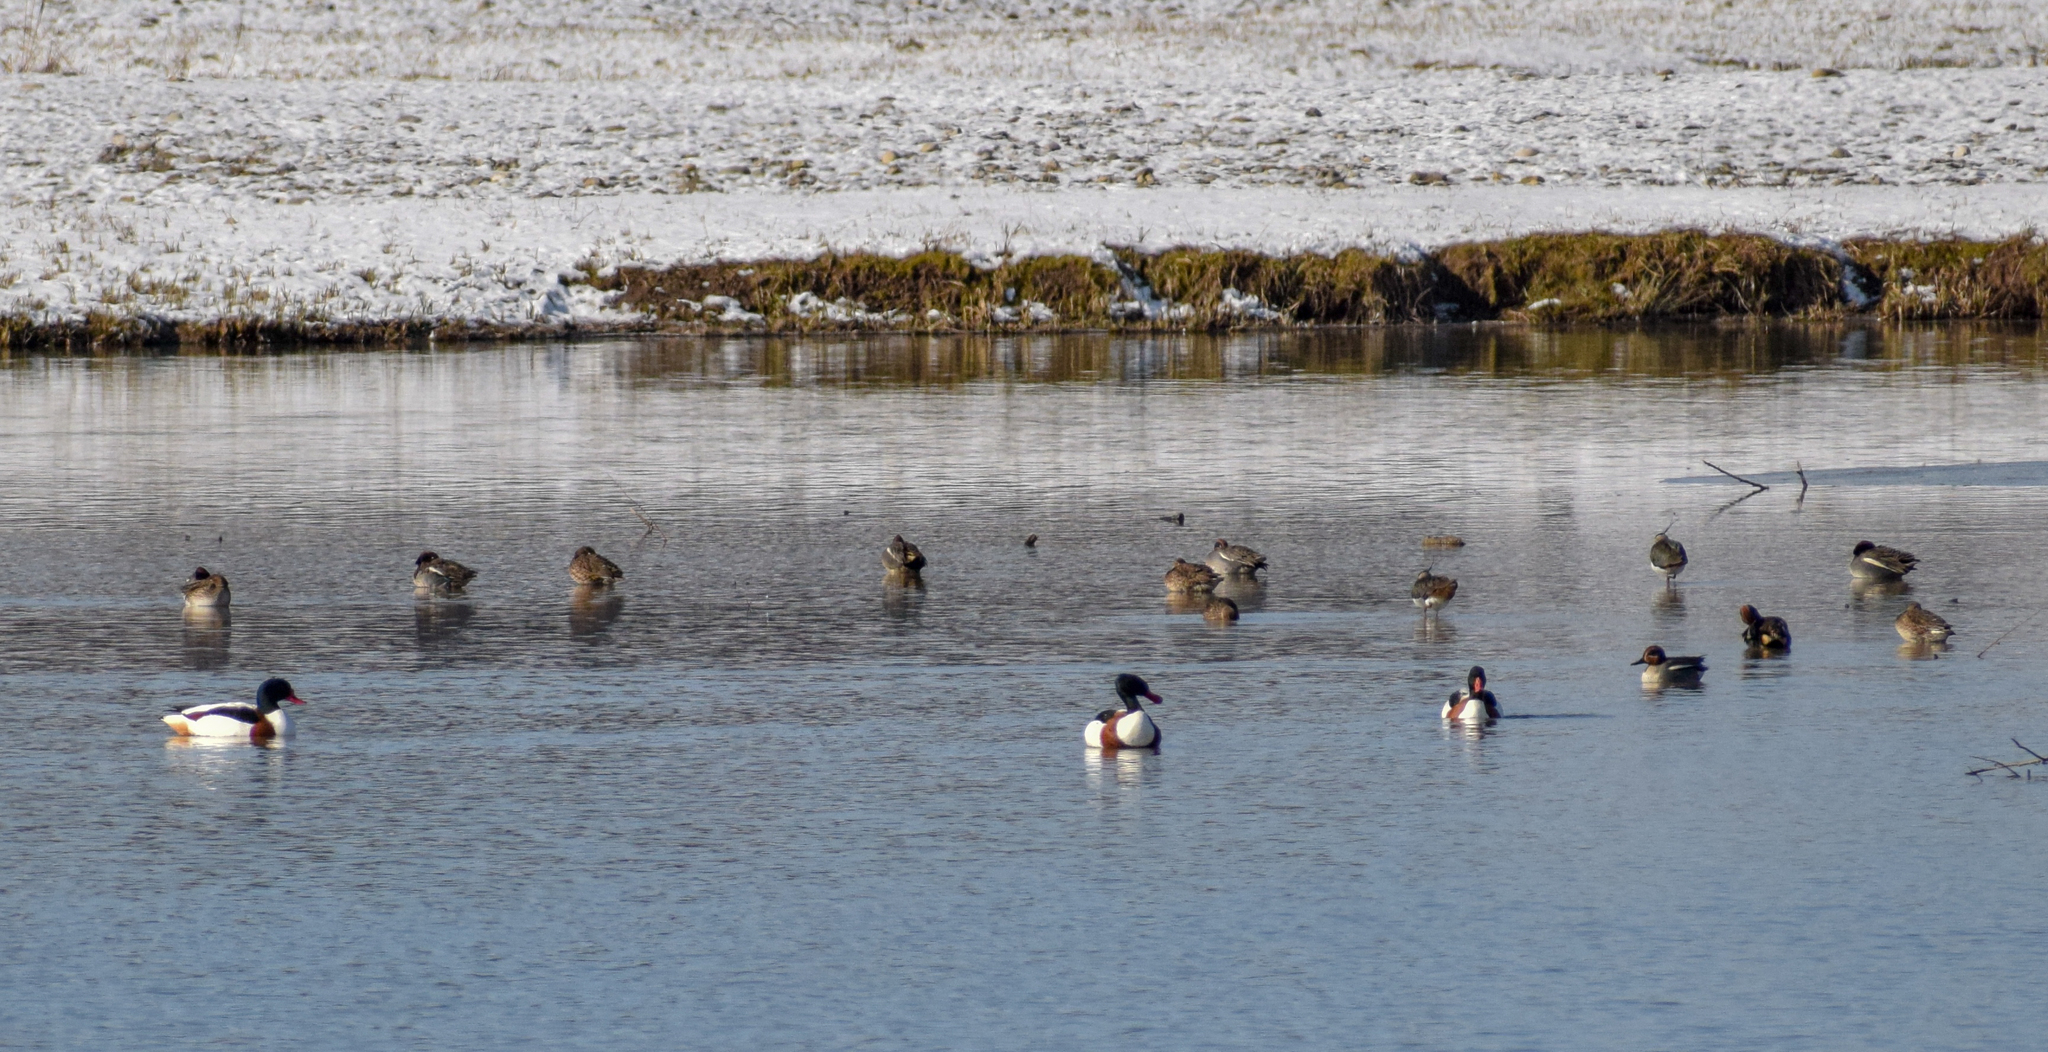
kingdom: Animalia
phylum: Chordata
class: Aves
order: Anseriformes
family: Anatidae
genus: Tadorna
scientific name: Tadorna tadorna
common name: Common shelduck
